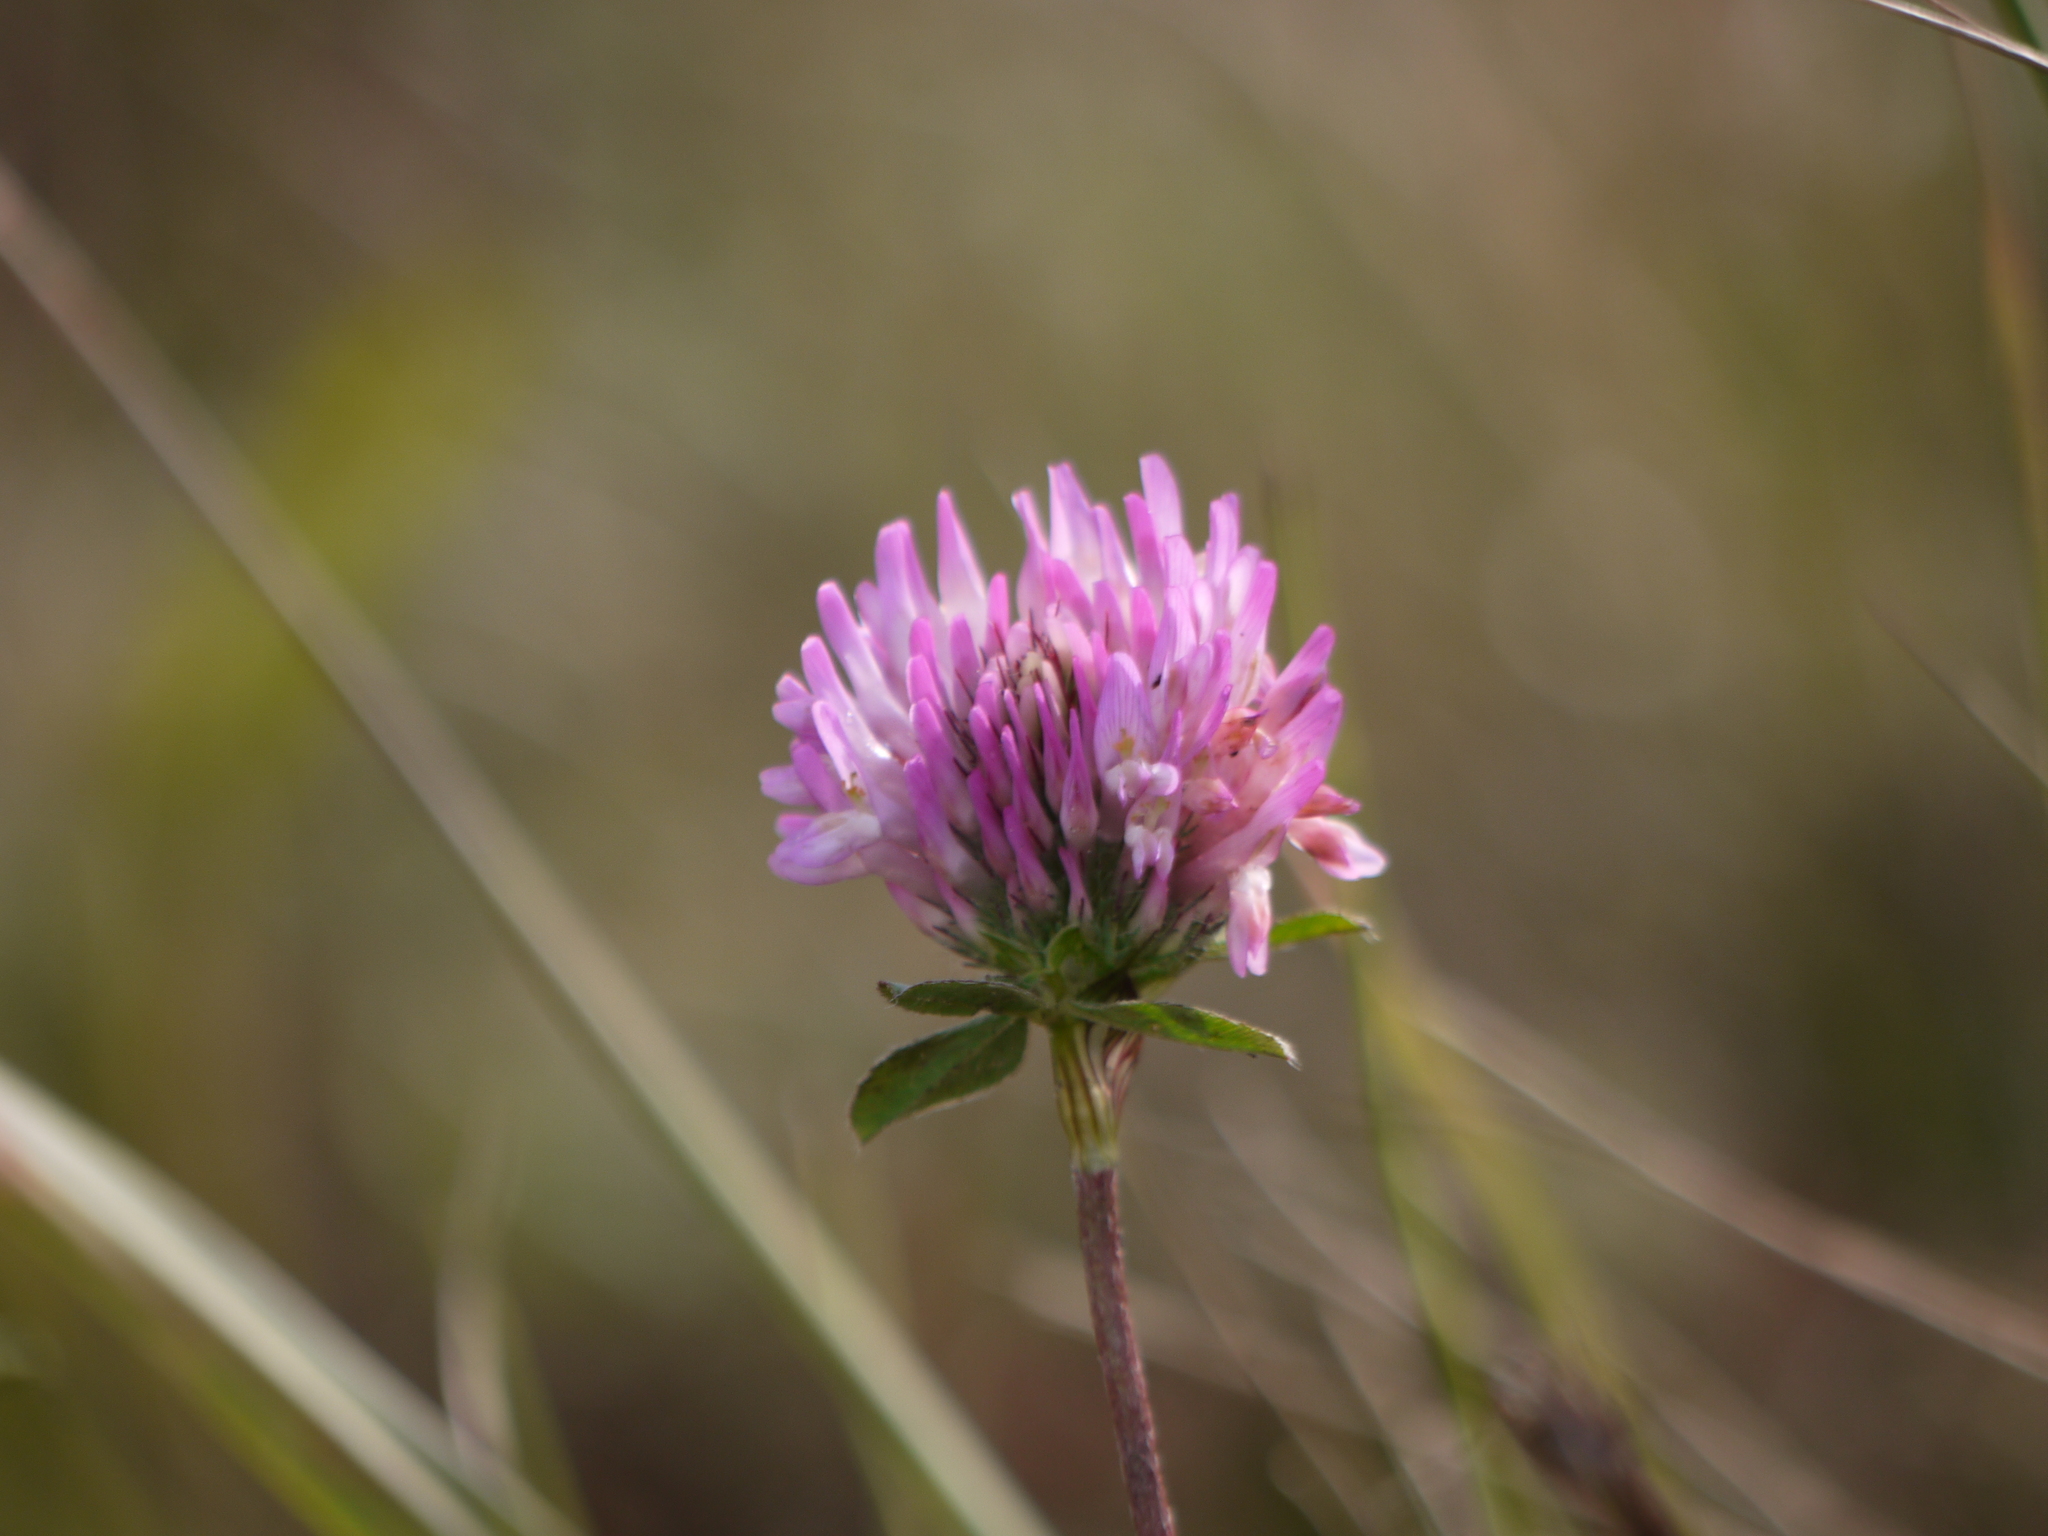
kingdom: Plantae
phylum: Tracheophyta
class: Magnoliopsida
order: Fabales
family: Fabaceae
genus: Trifolium
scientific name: Trifolium pratense
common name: Red clover
